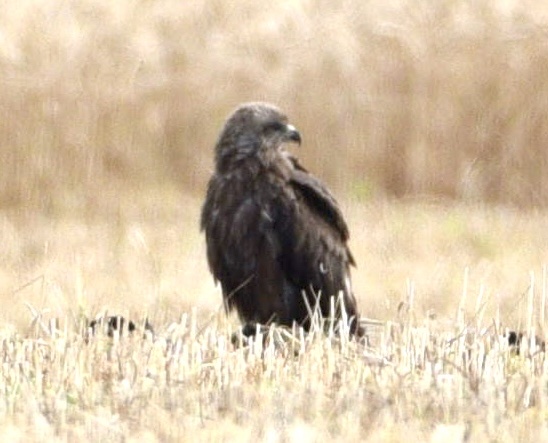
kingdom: Animalia
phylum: Chordata
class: Aves
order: Accipitriformes
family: Accipitridae
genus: Milvus
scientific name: Milvus migrans
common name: Black kite
